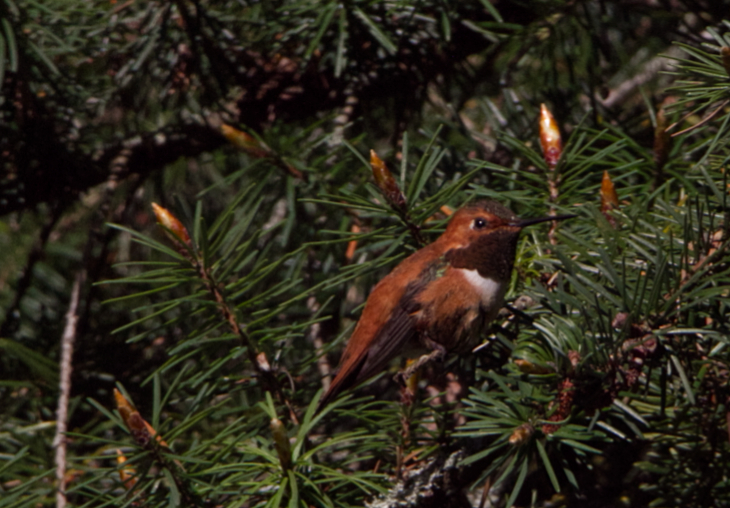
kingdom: Animalia
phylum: Chordata
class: Aves
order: Apodiformes
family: Trochilidae
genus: Selasphorus
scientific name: Selasphorus rufus
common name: Rufous hummingbird
